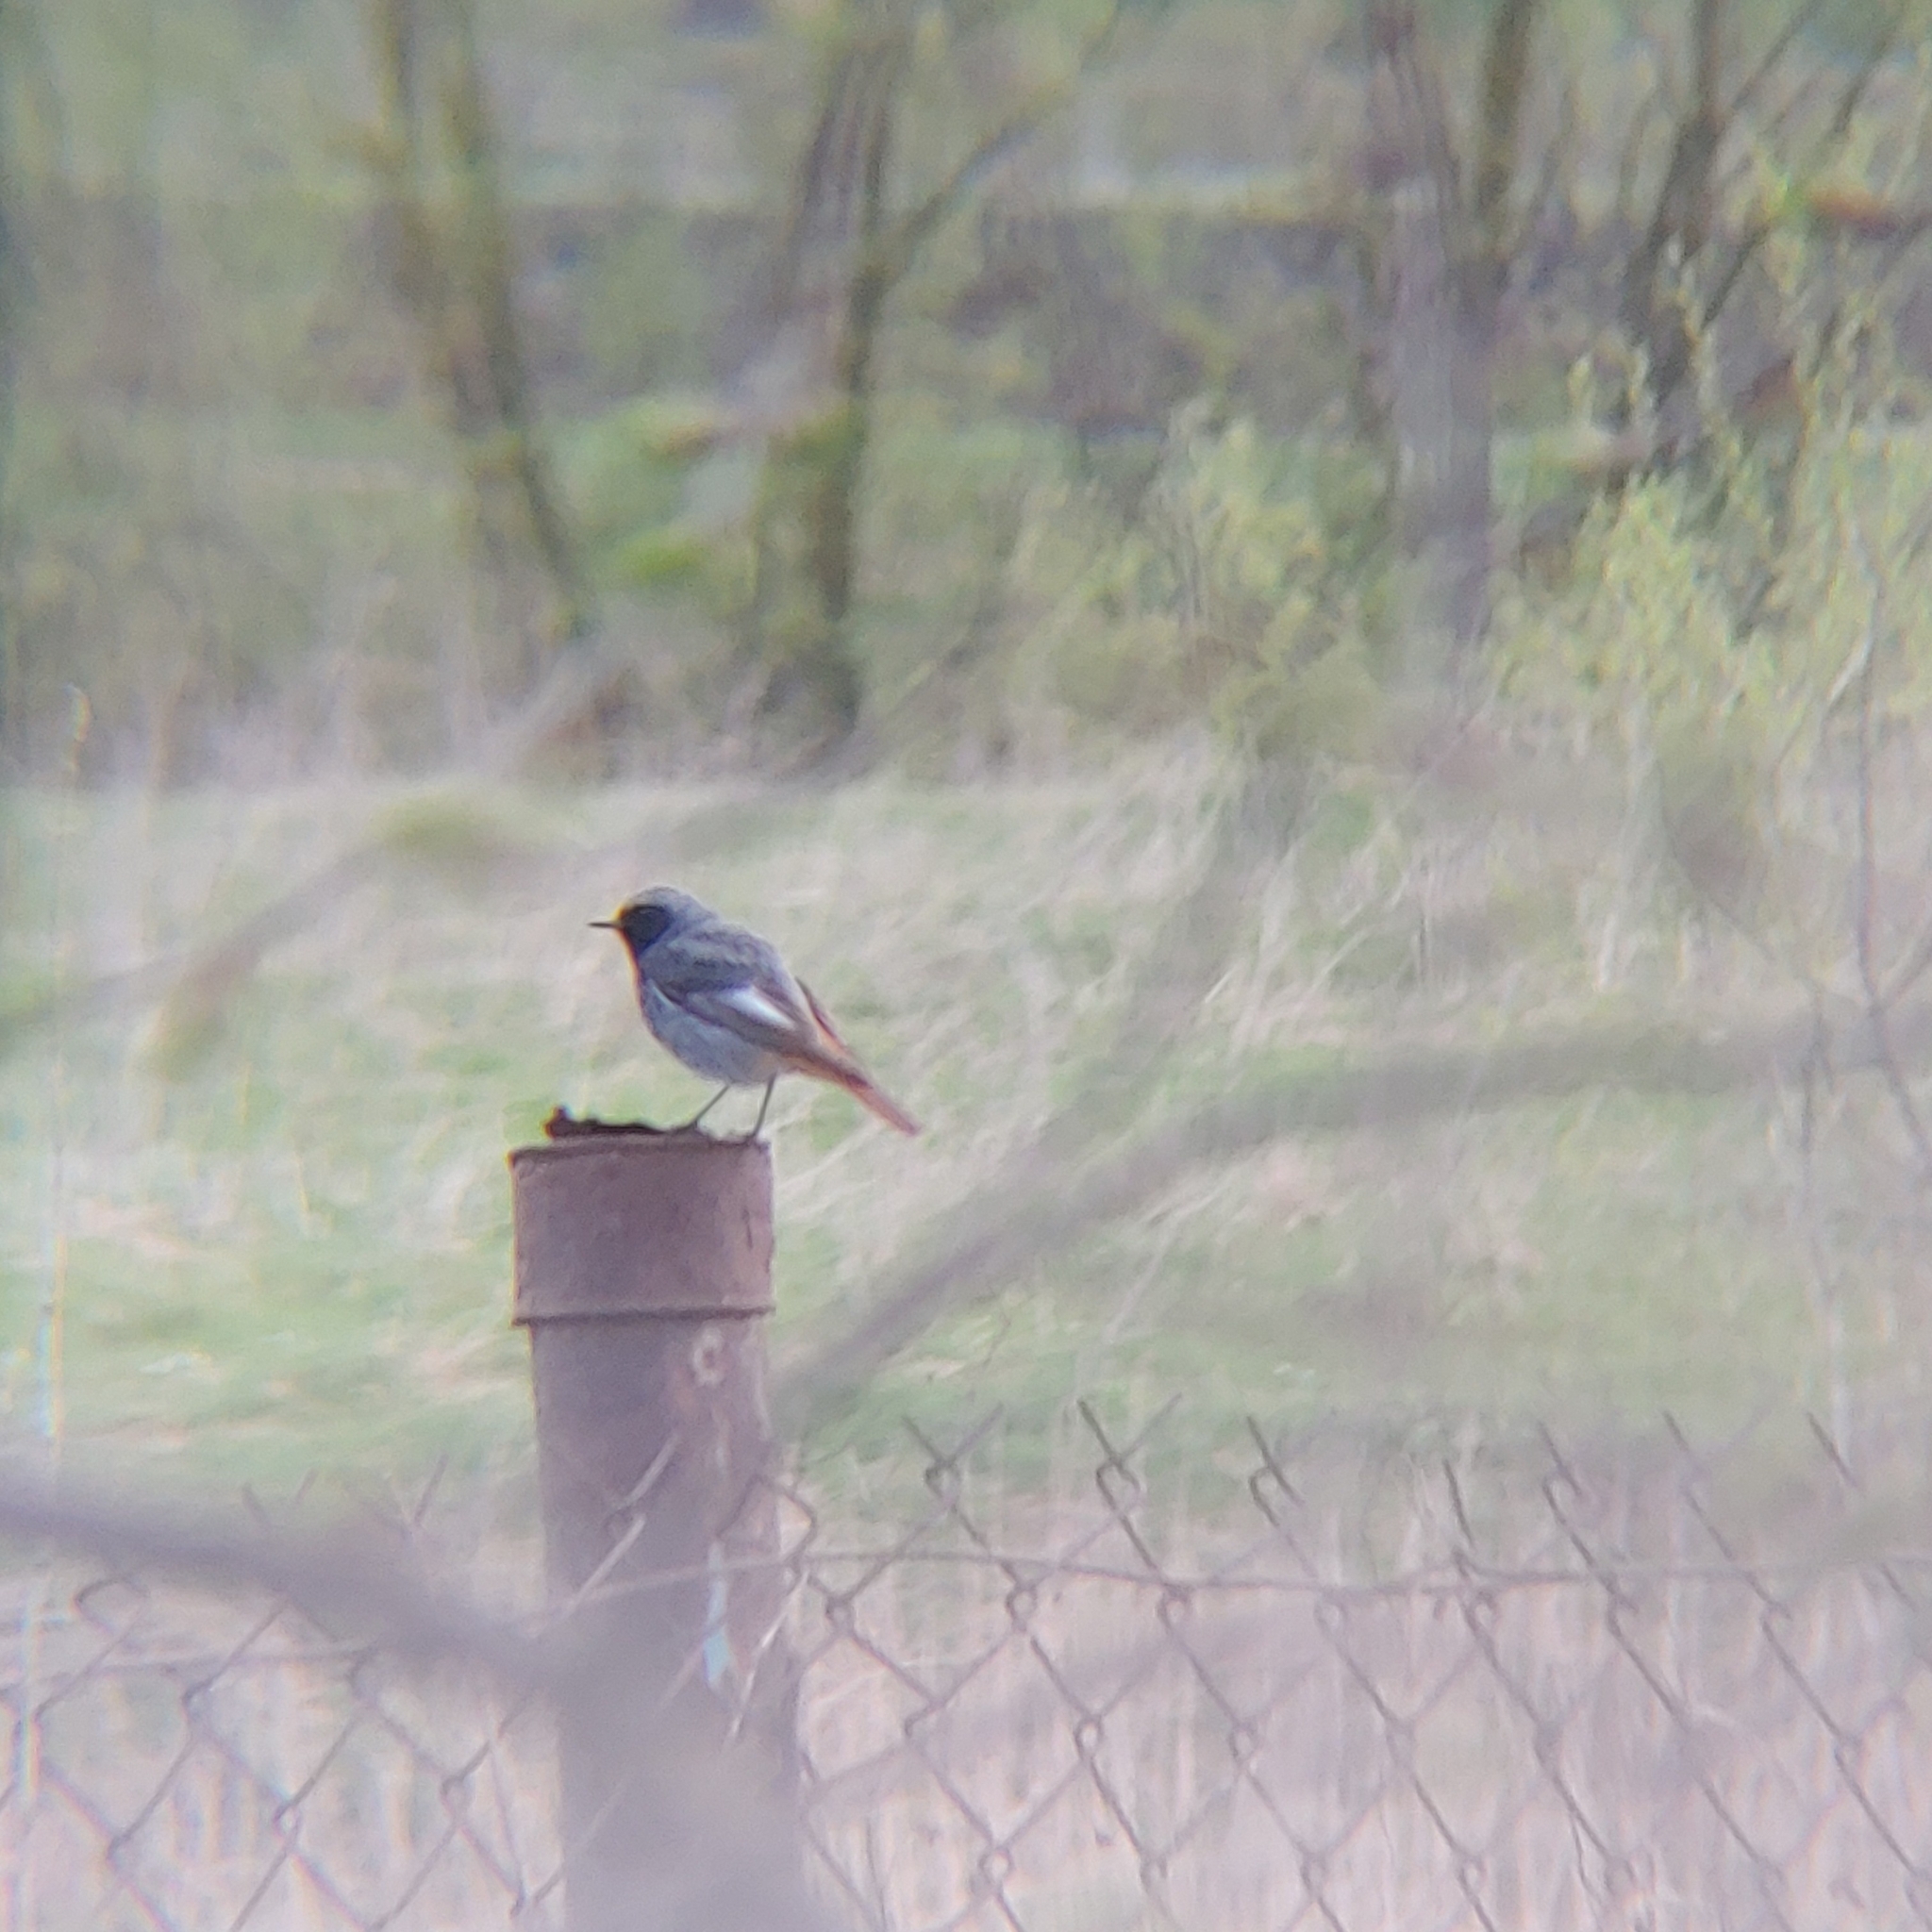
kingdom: Animalia
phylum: Chordata
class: Aves
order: Passeriformes
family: Muscicapidae
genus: Phoenicurus
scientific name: Phoenicurus ochruros
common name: Black redstart
